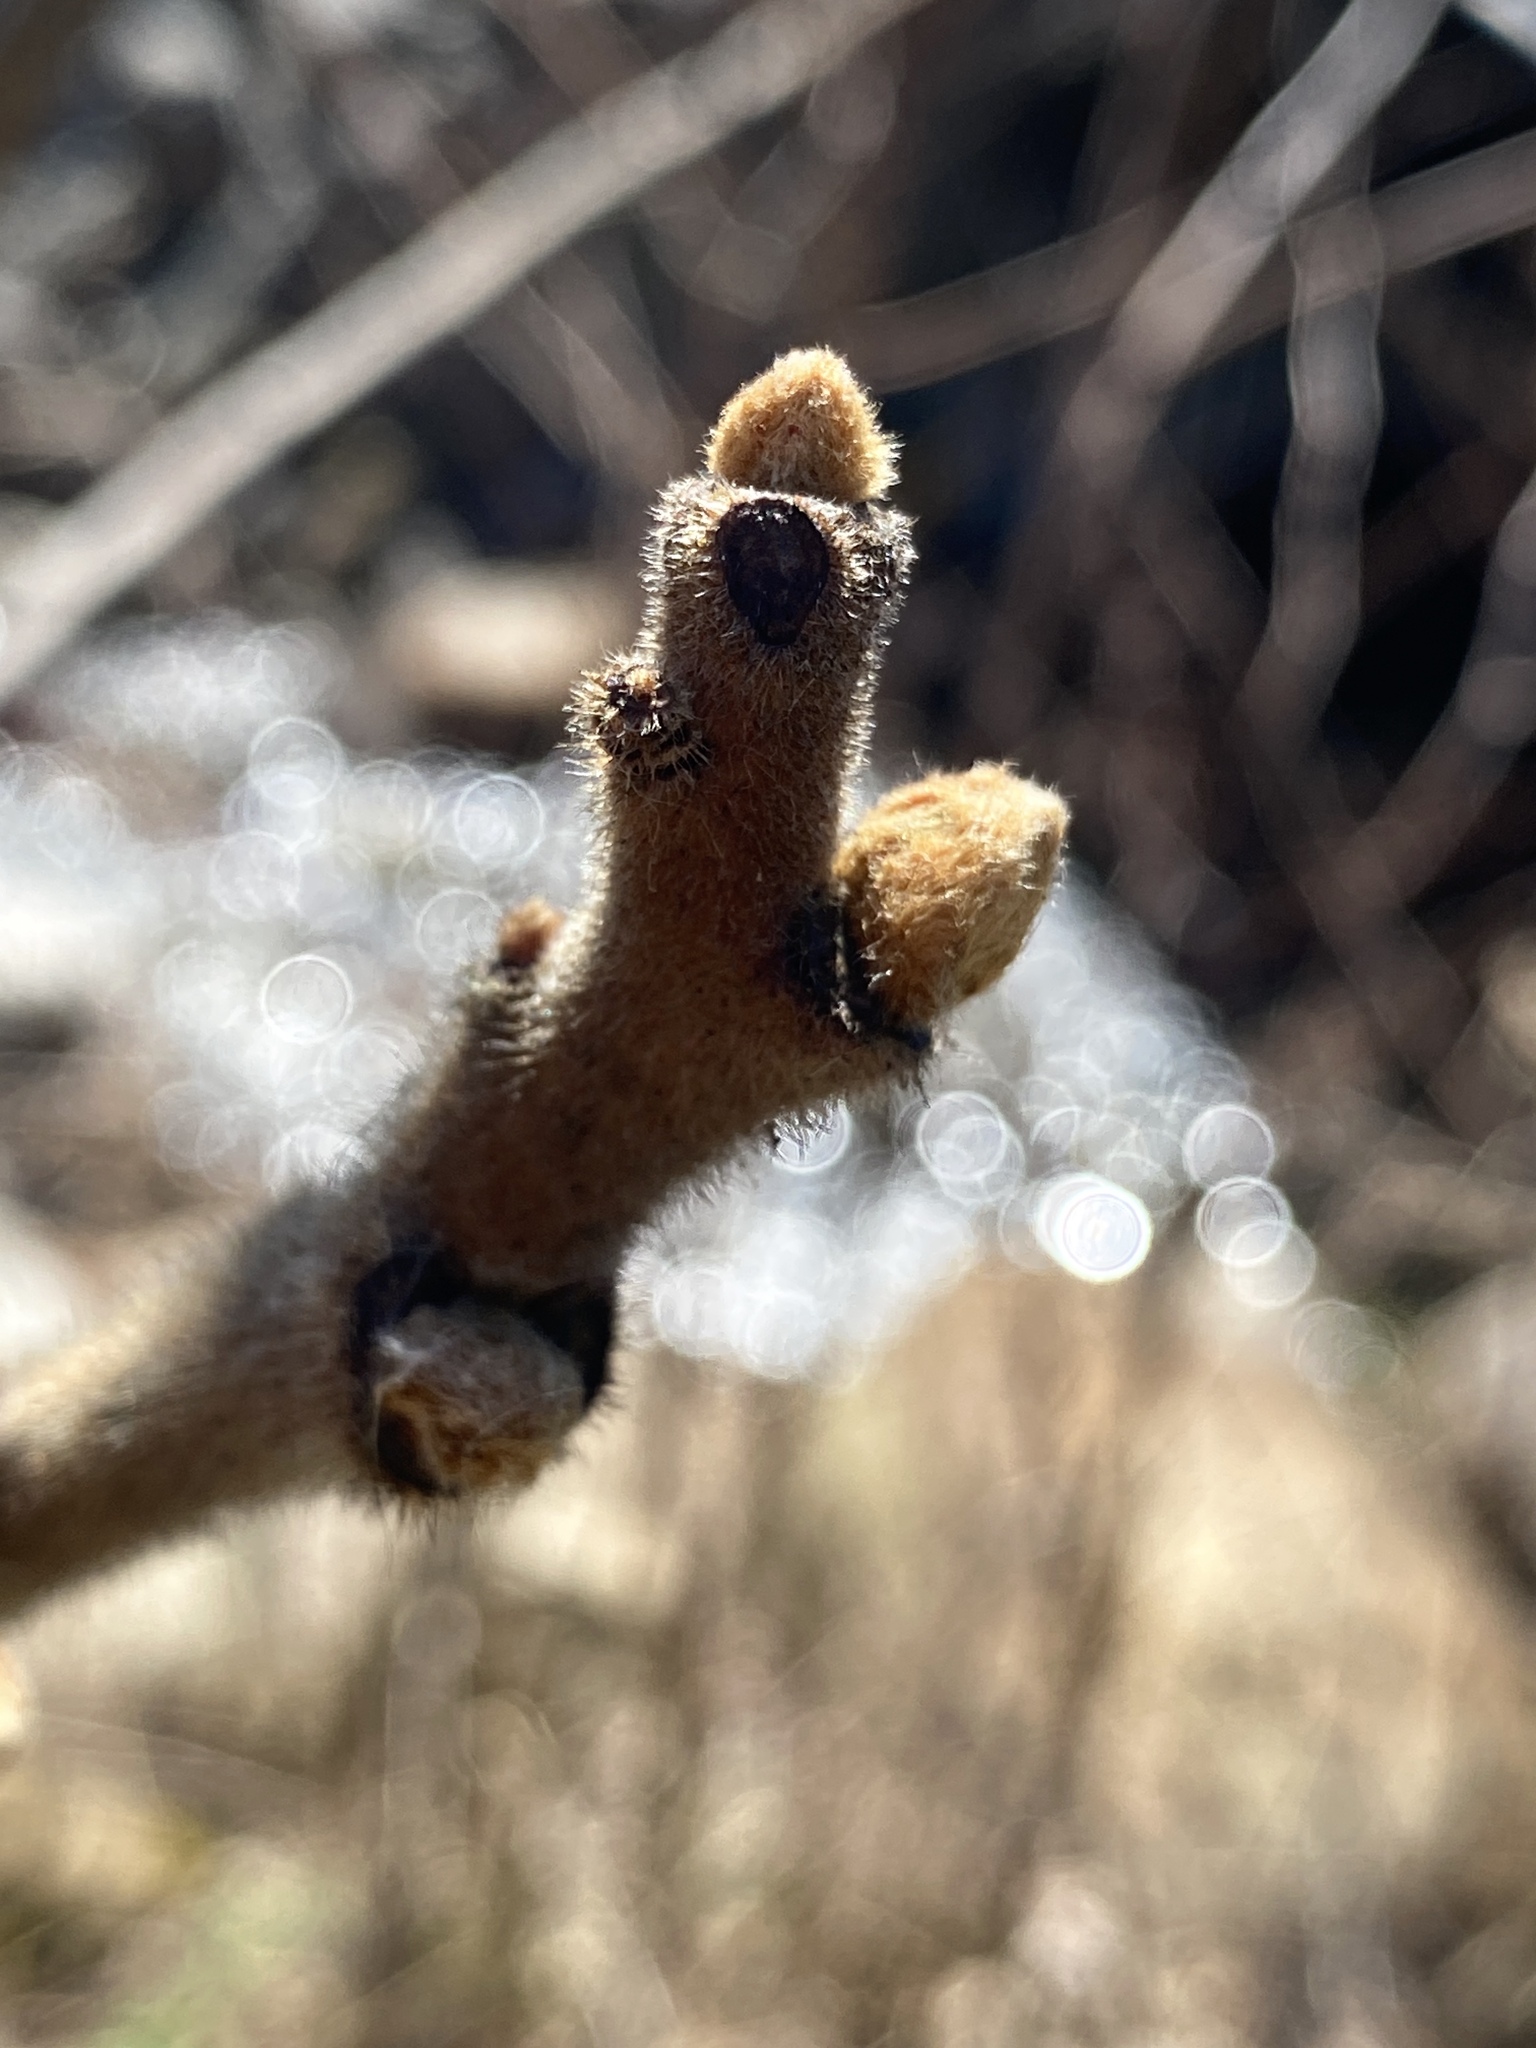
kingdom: Plantae
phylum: Tracheophyta
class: Magnoliopsida
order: Sapindales
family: Anacardiaceae
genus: Rhus
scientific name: Rhus typhina
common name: Staghorn sumac
